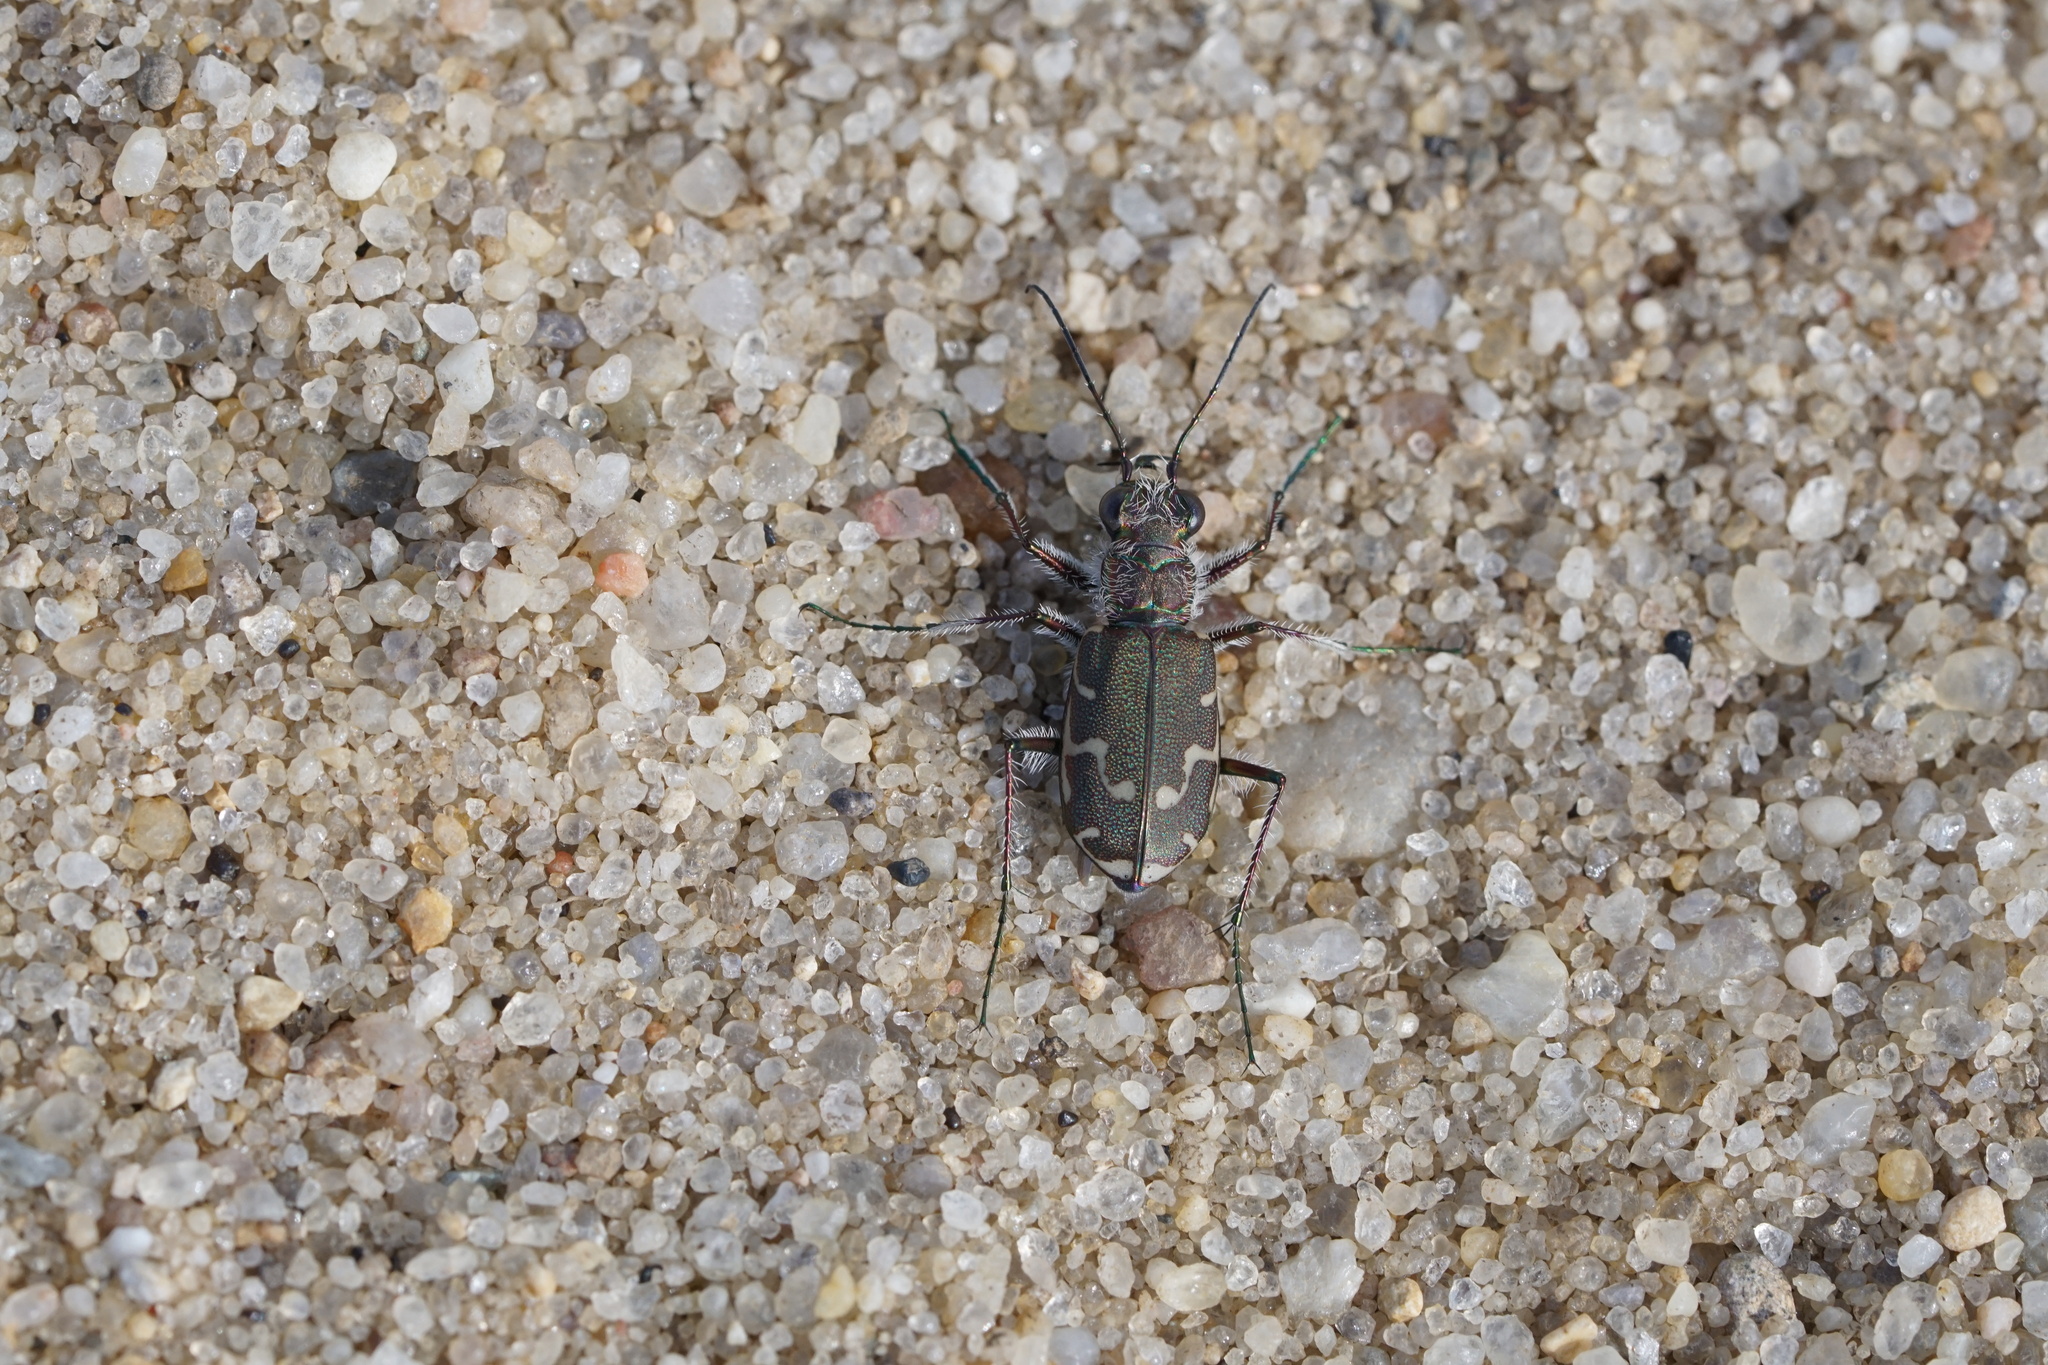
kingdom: Animalia
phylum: Arthropoda
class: Insecta
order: Coleoptera
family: Carabidae
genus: Cicindela
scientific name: Cicindela repanda
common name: Bronzed tiger beetle
